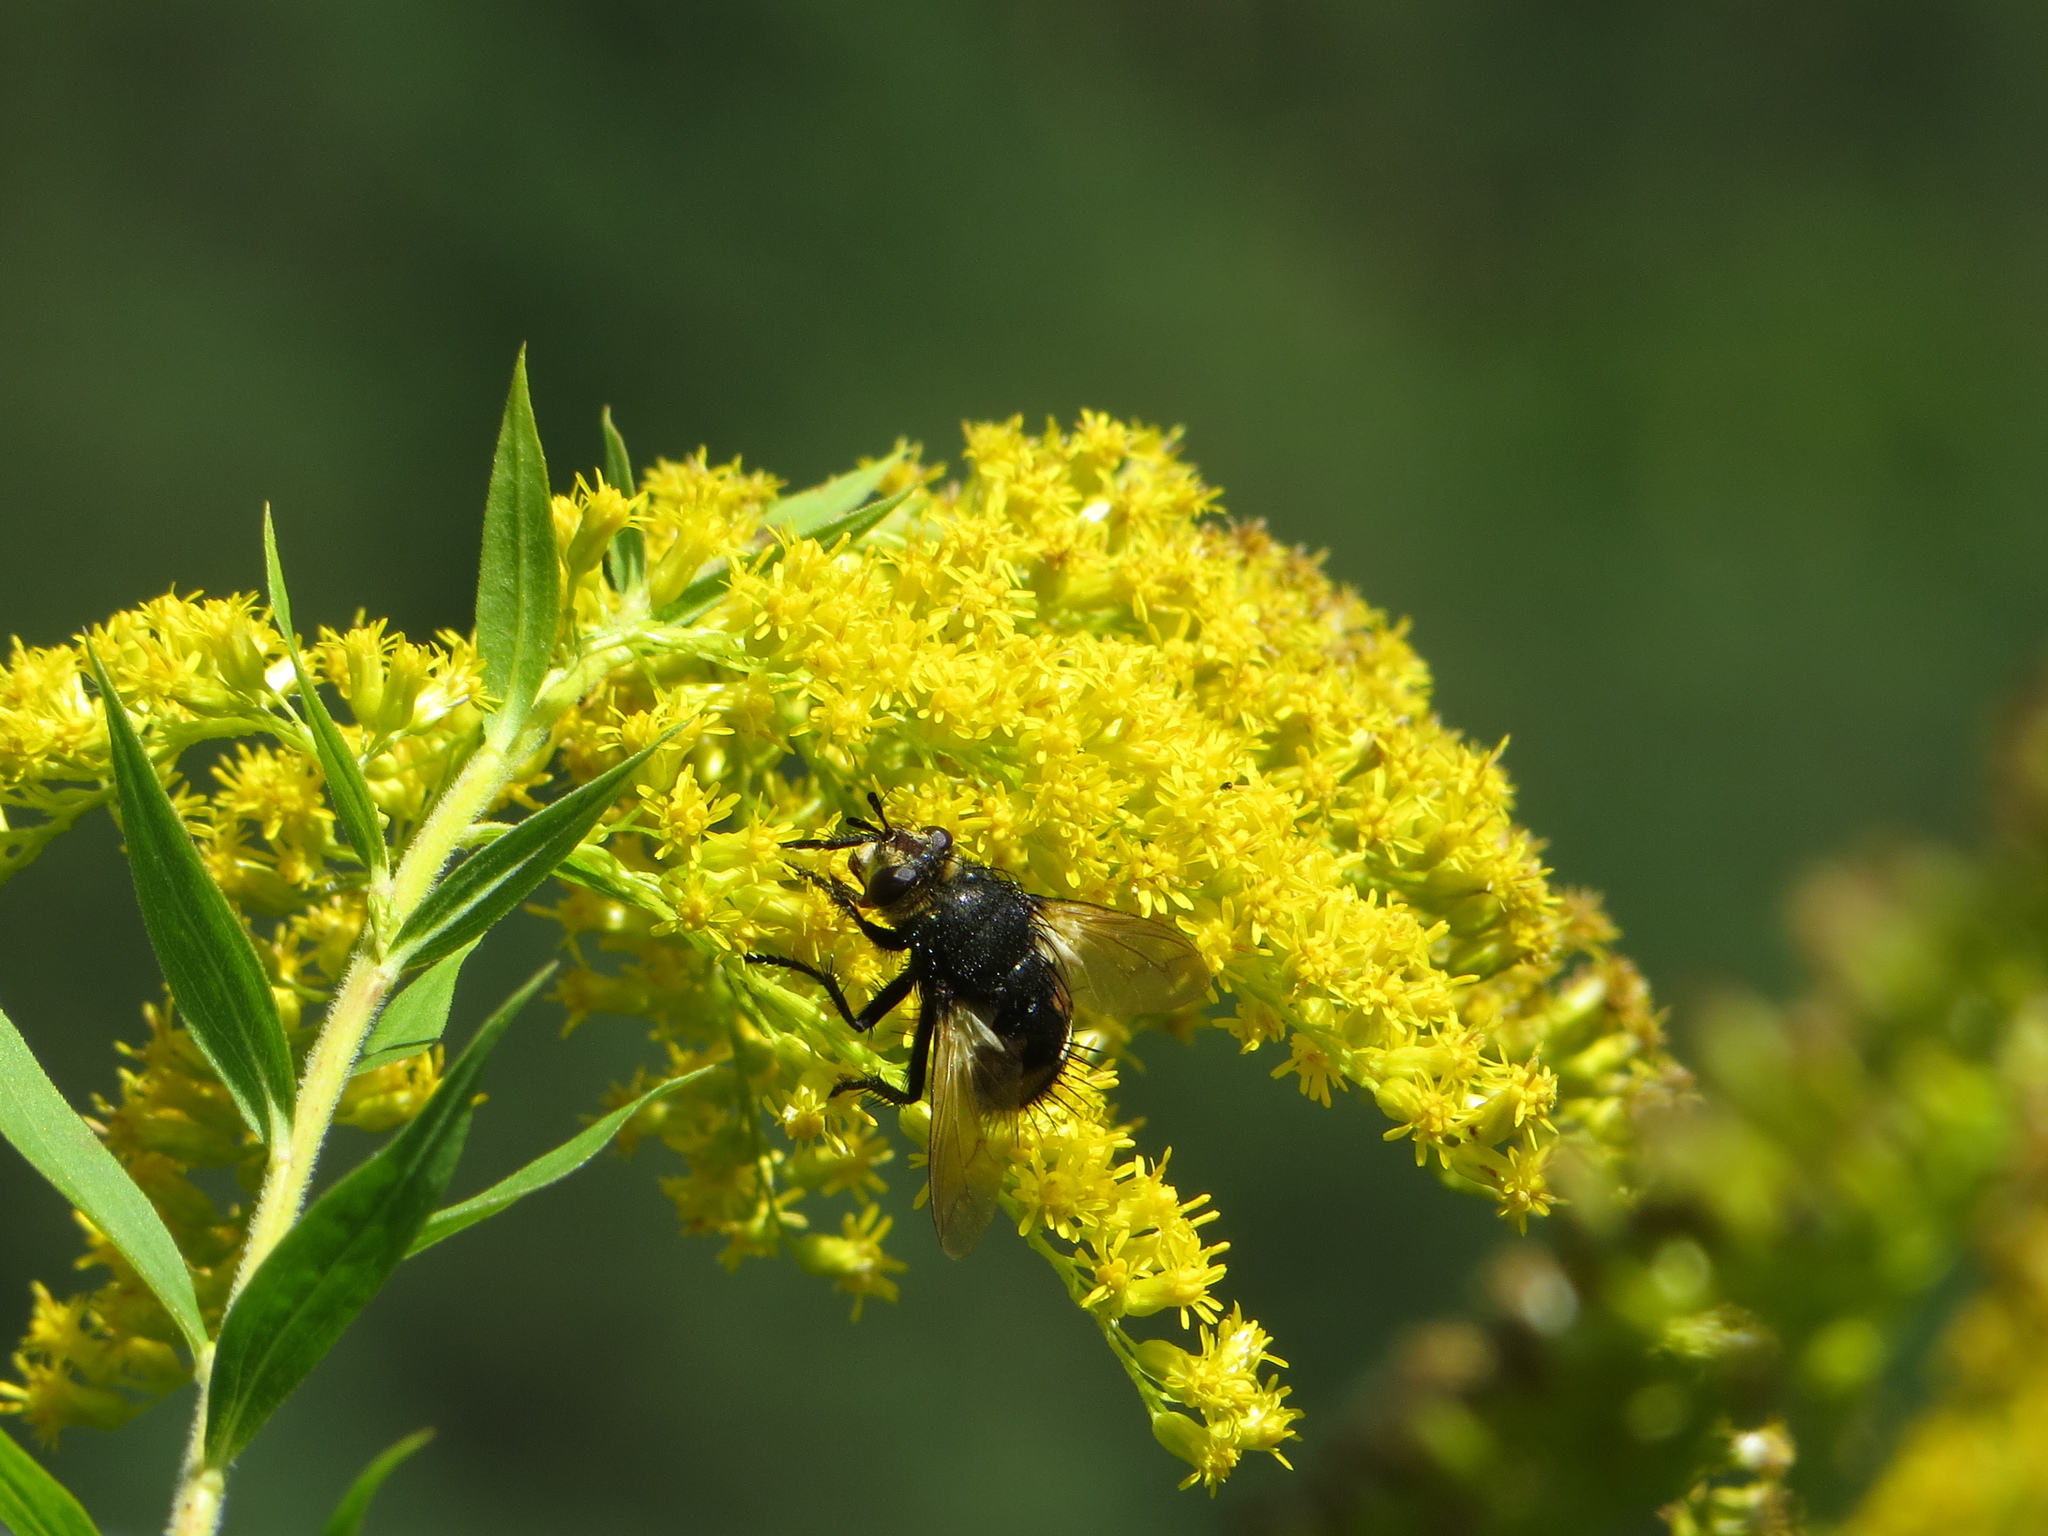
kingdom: Animalia
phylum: Arthropoda
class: Insecta
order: Diptera
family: Tachinidae
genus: Nowickia
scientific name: Nowickia ferox
